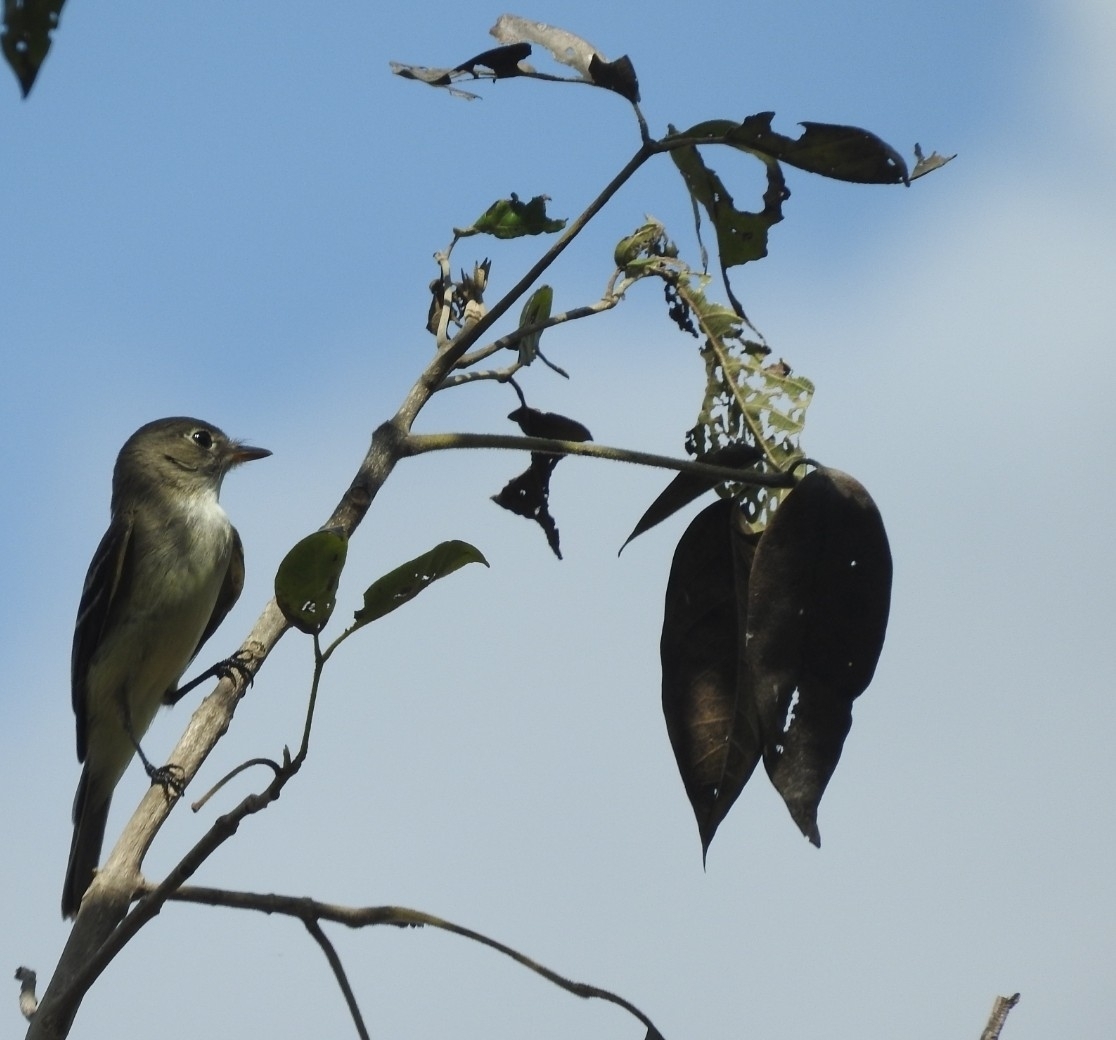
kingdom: Animalia
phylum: Chordata
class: Aves
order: Passeriformes
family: Tyrannidae
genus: Empidonax
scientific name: Empidonax minimus
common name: Least flycatcher
